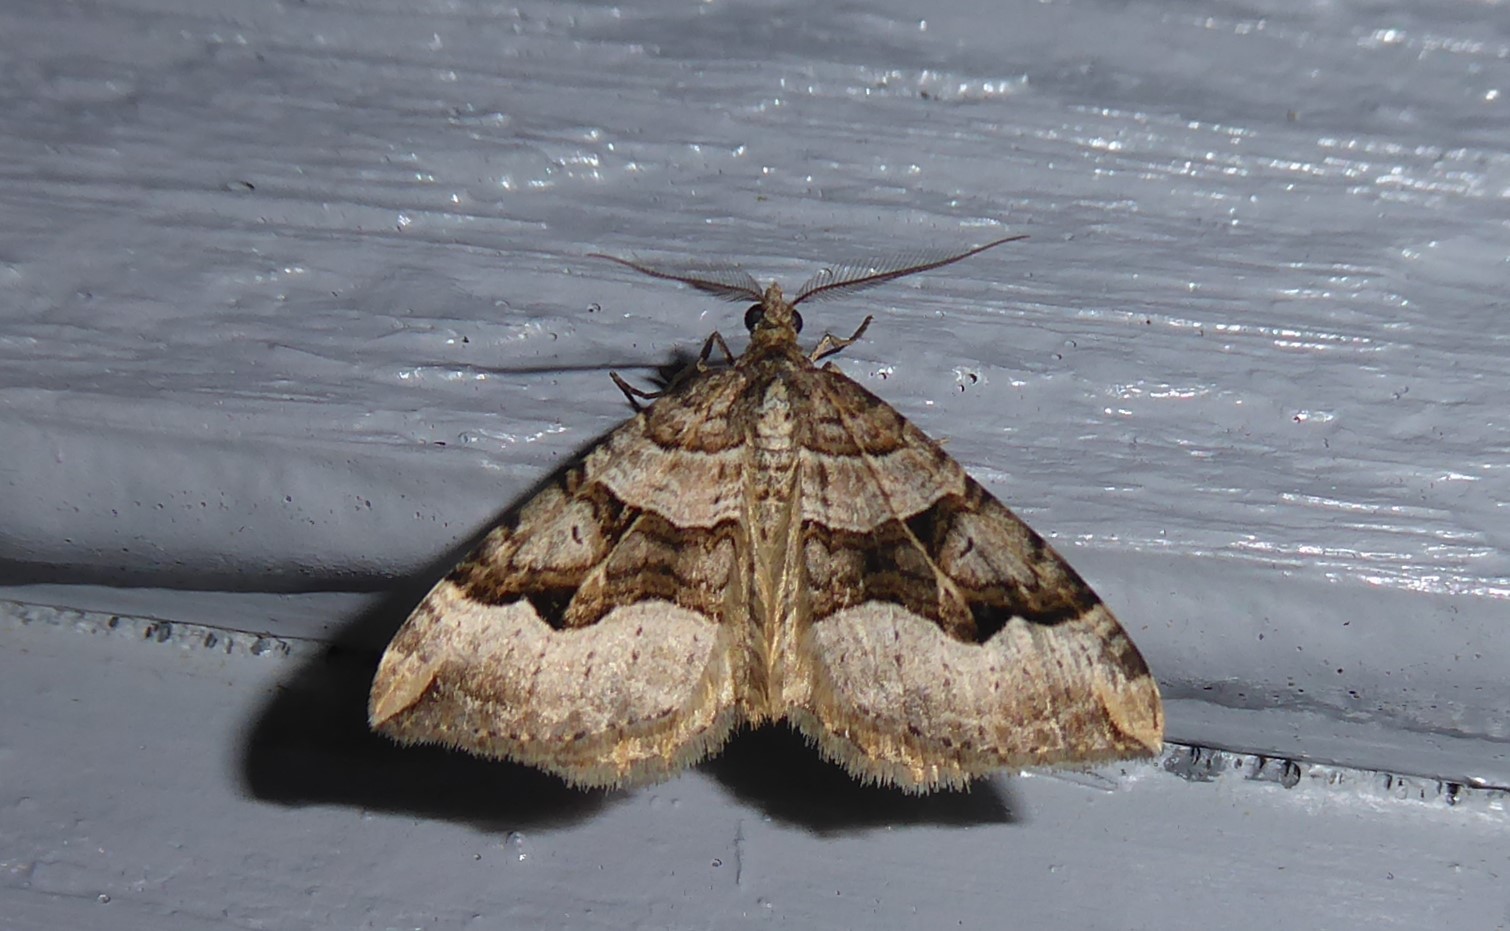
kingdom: Animalia
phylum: Arthropoda
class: Insecta
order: Lepidoptera
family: Geometridae
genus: Xanthorhoe
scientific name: Xanthorhoe semifissata
